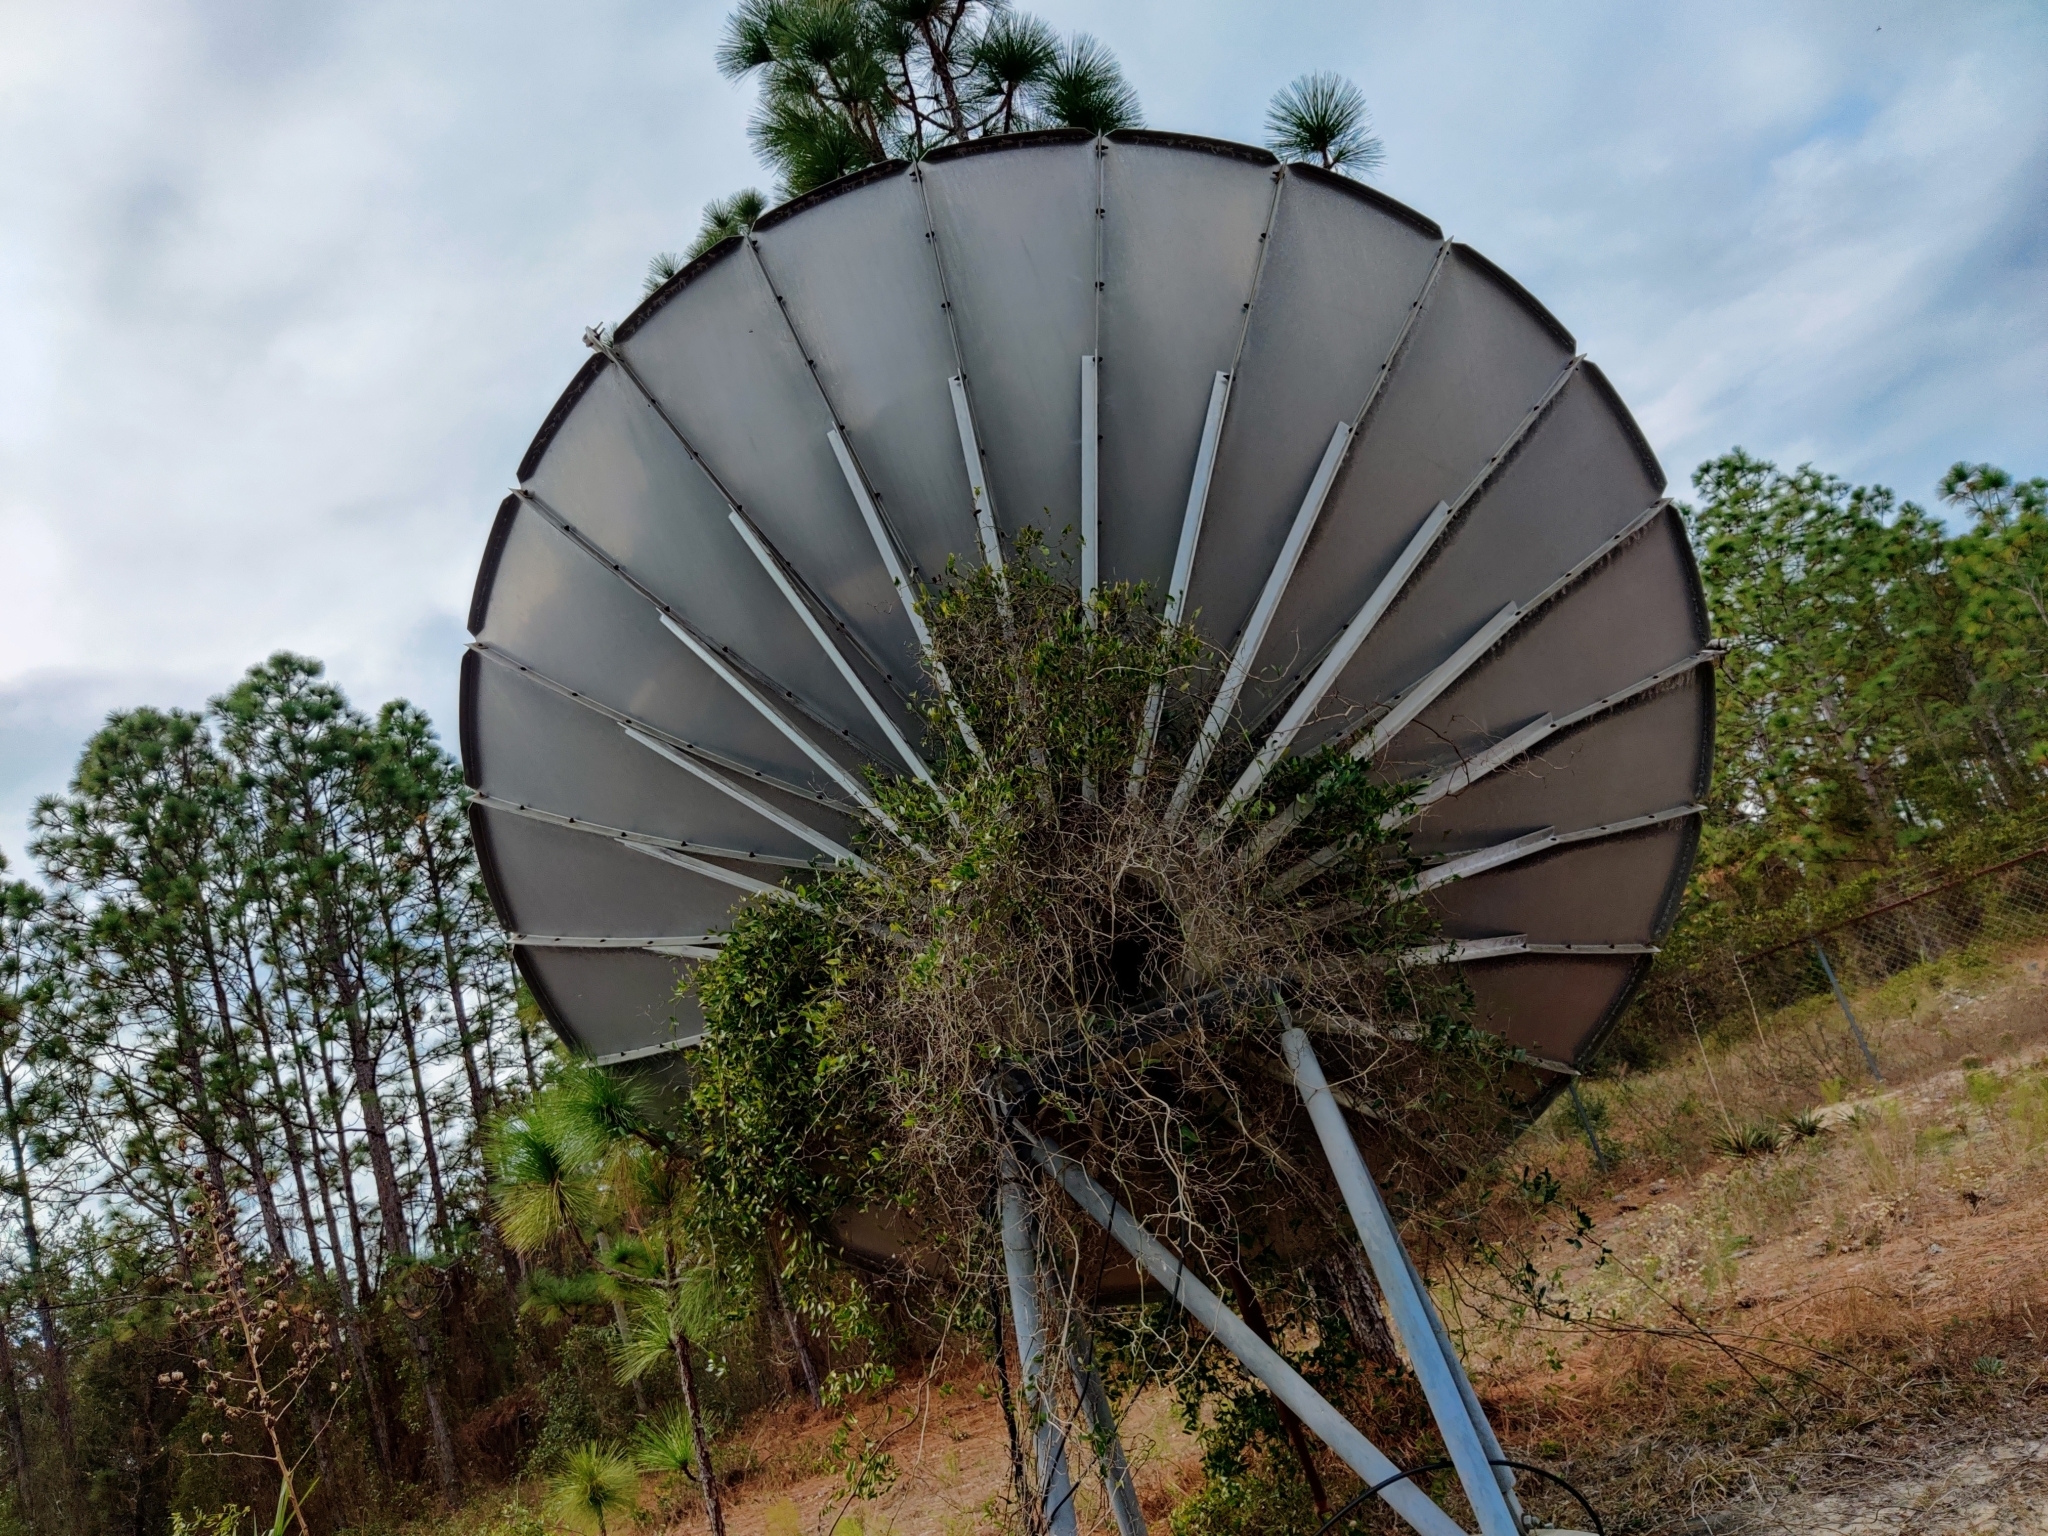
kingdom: Plantae
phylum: Tracheophyta
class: Liliopsida
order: Liliales
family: Smilacaceae
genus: Smilax
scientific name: Smilax auriculata
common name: Wild bamboo
